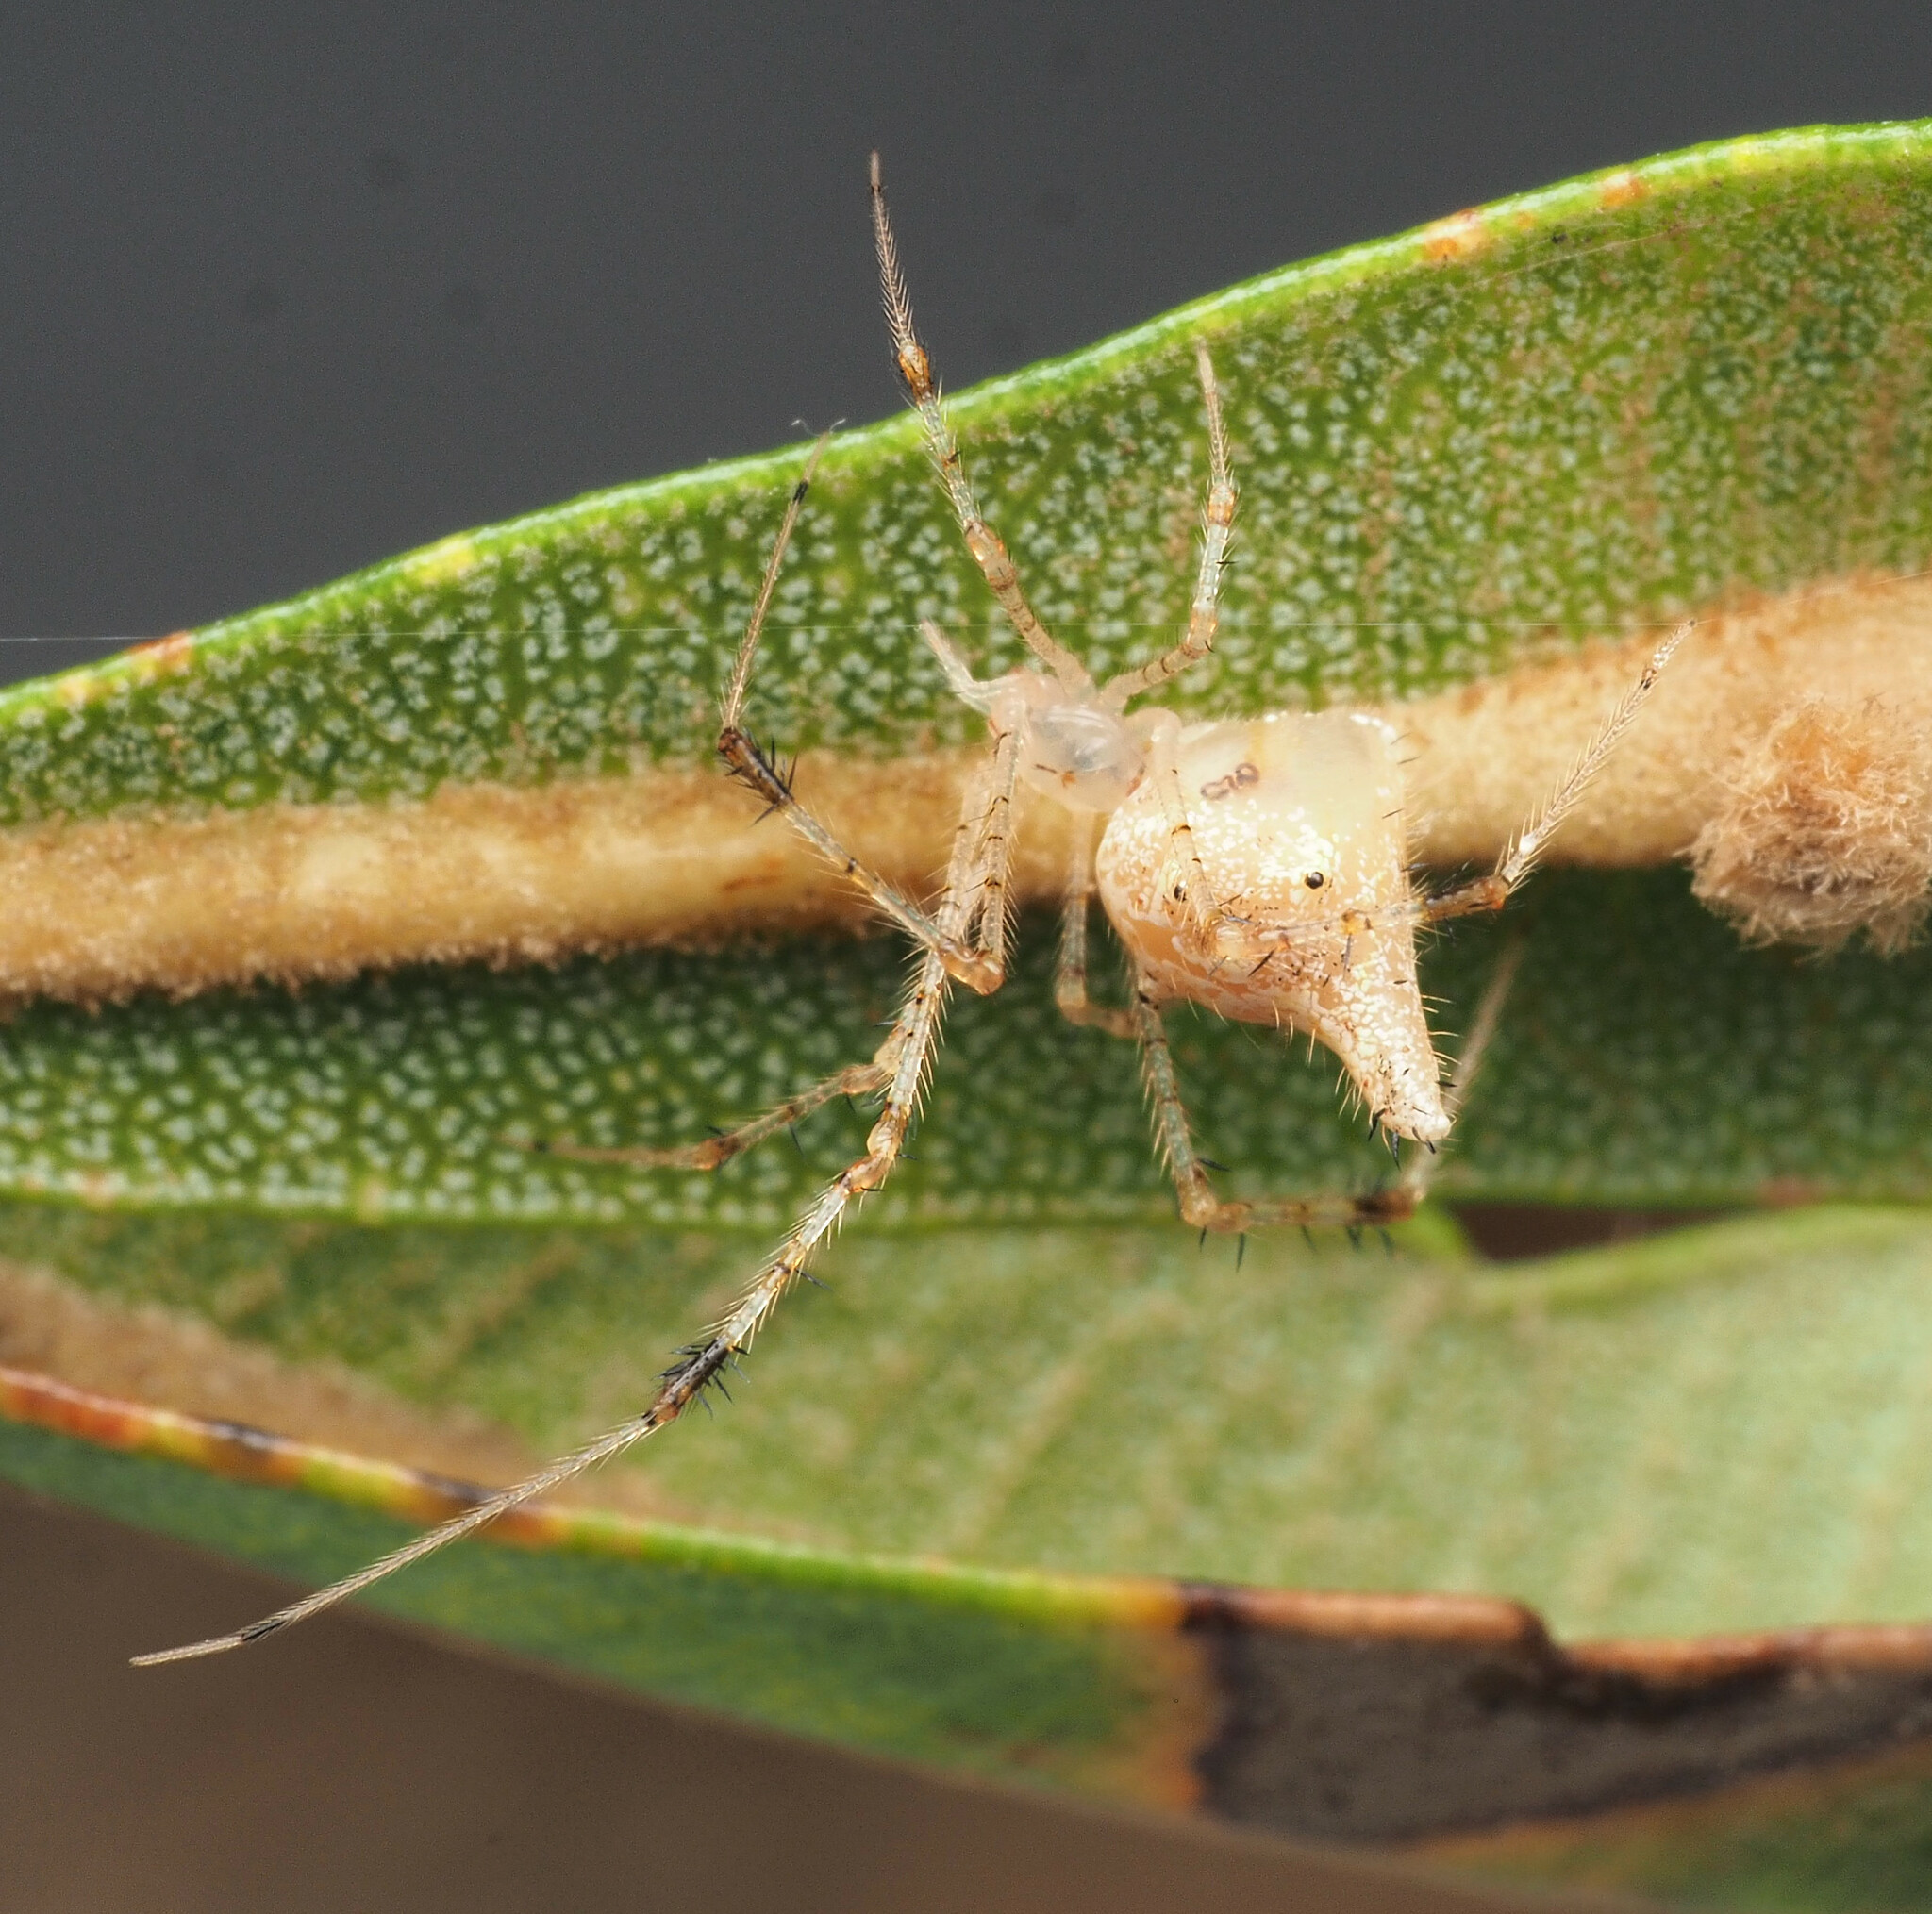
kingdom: Animalia
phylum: Arthropoda
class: Arachnida
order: Araneae
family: Theridiidae
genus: Meotipa
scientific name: Meotipa
